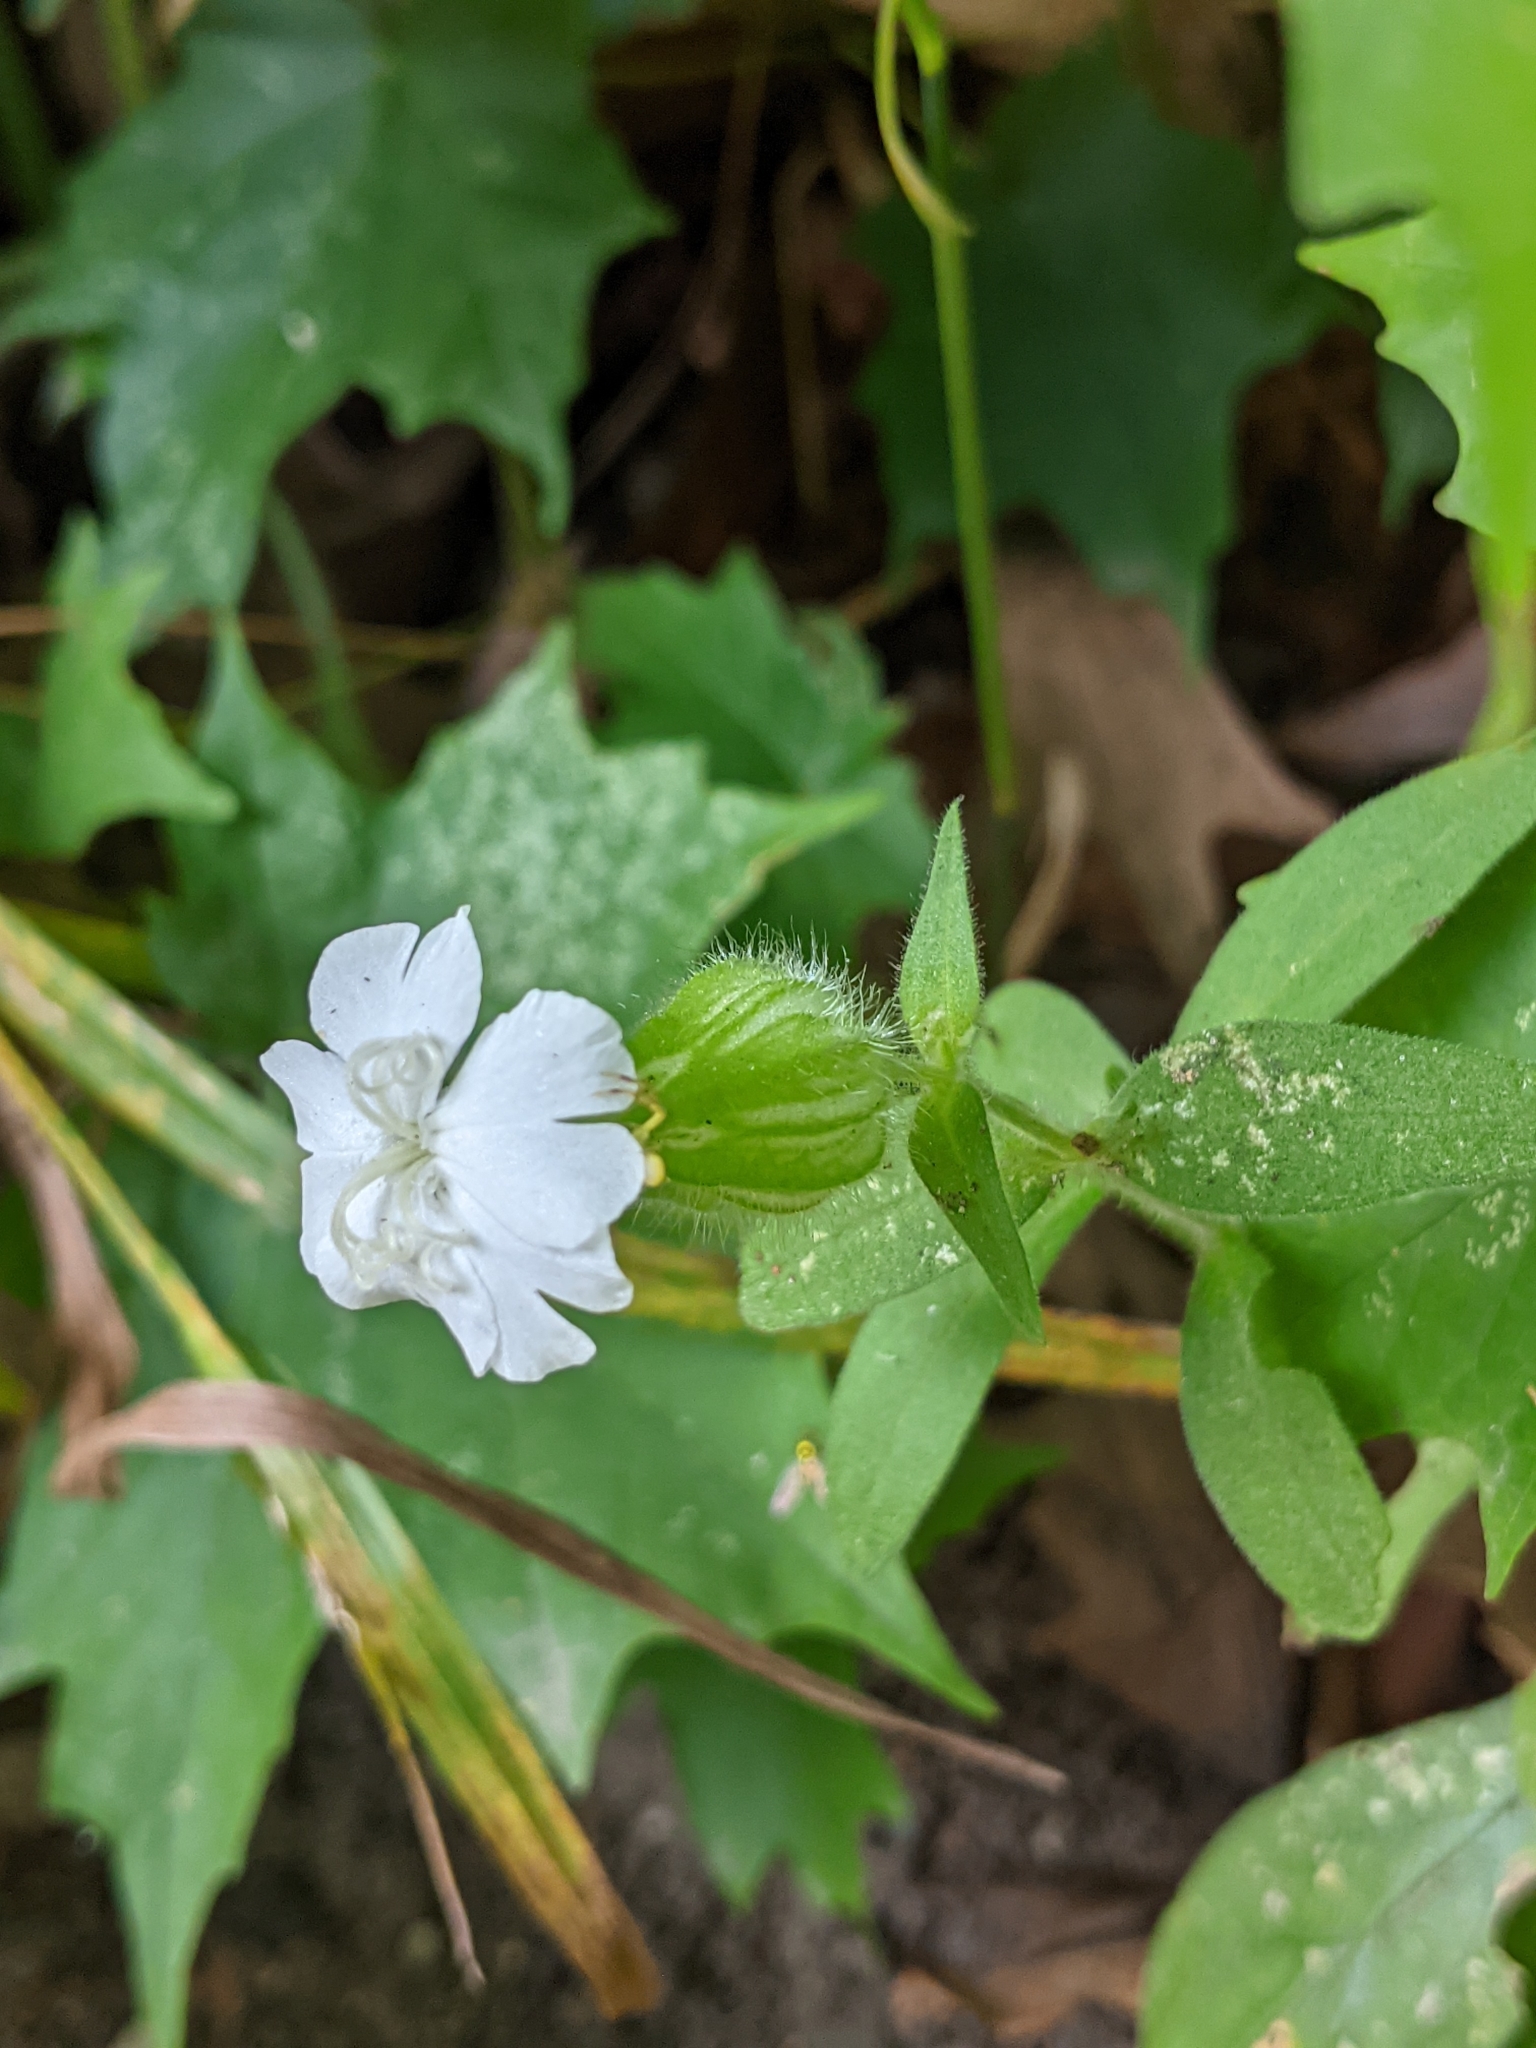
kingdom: Plantae
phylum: Tracheophyta
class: Magnoliopsida
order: Caryophyllales
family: Caryophyllaceae
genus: Silene
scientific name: Silene latifolia
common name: White campion
